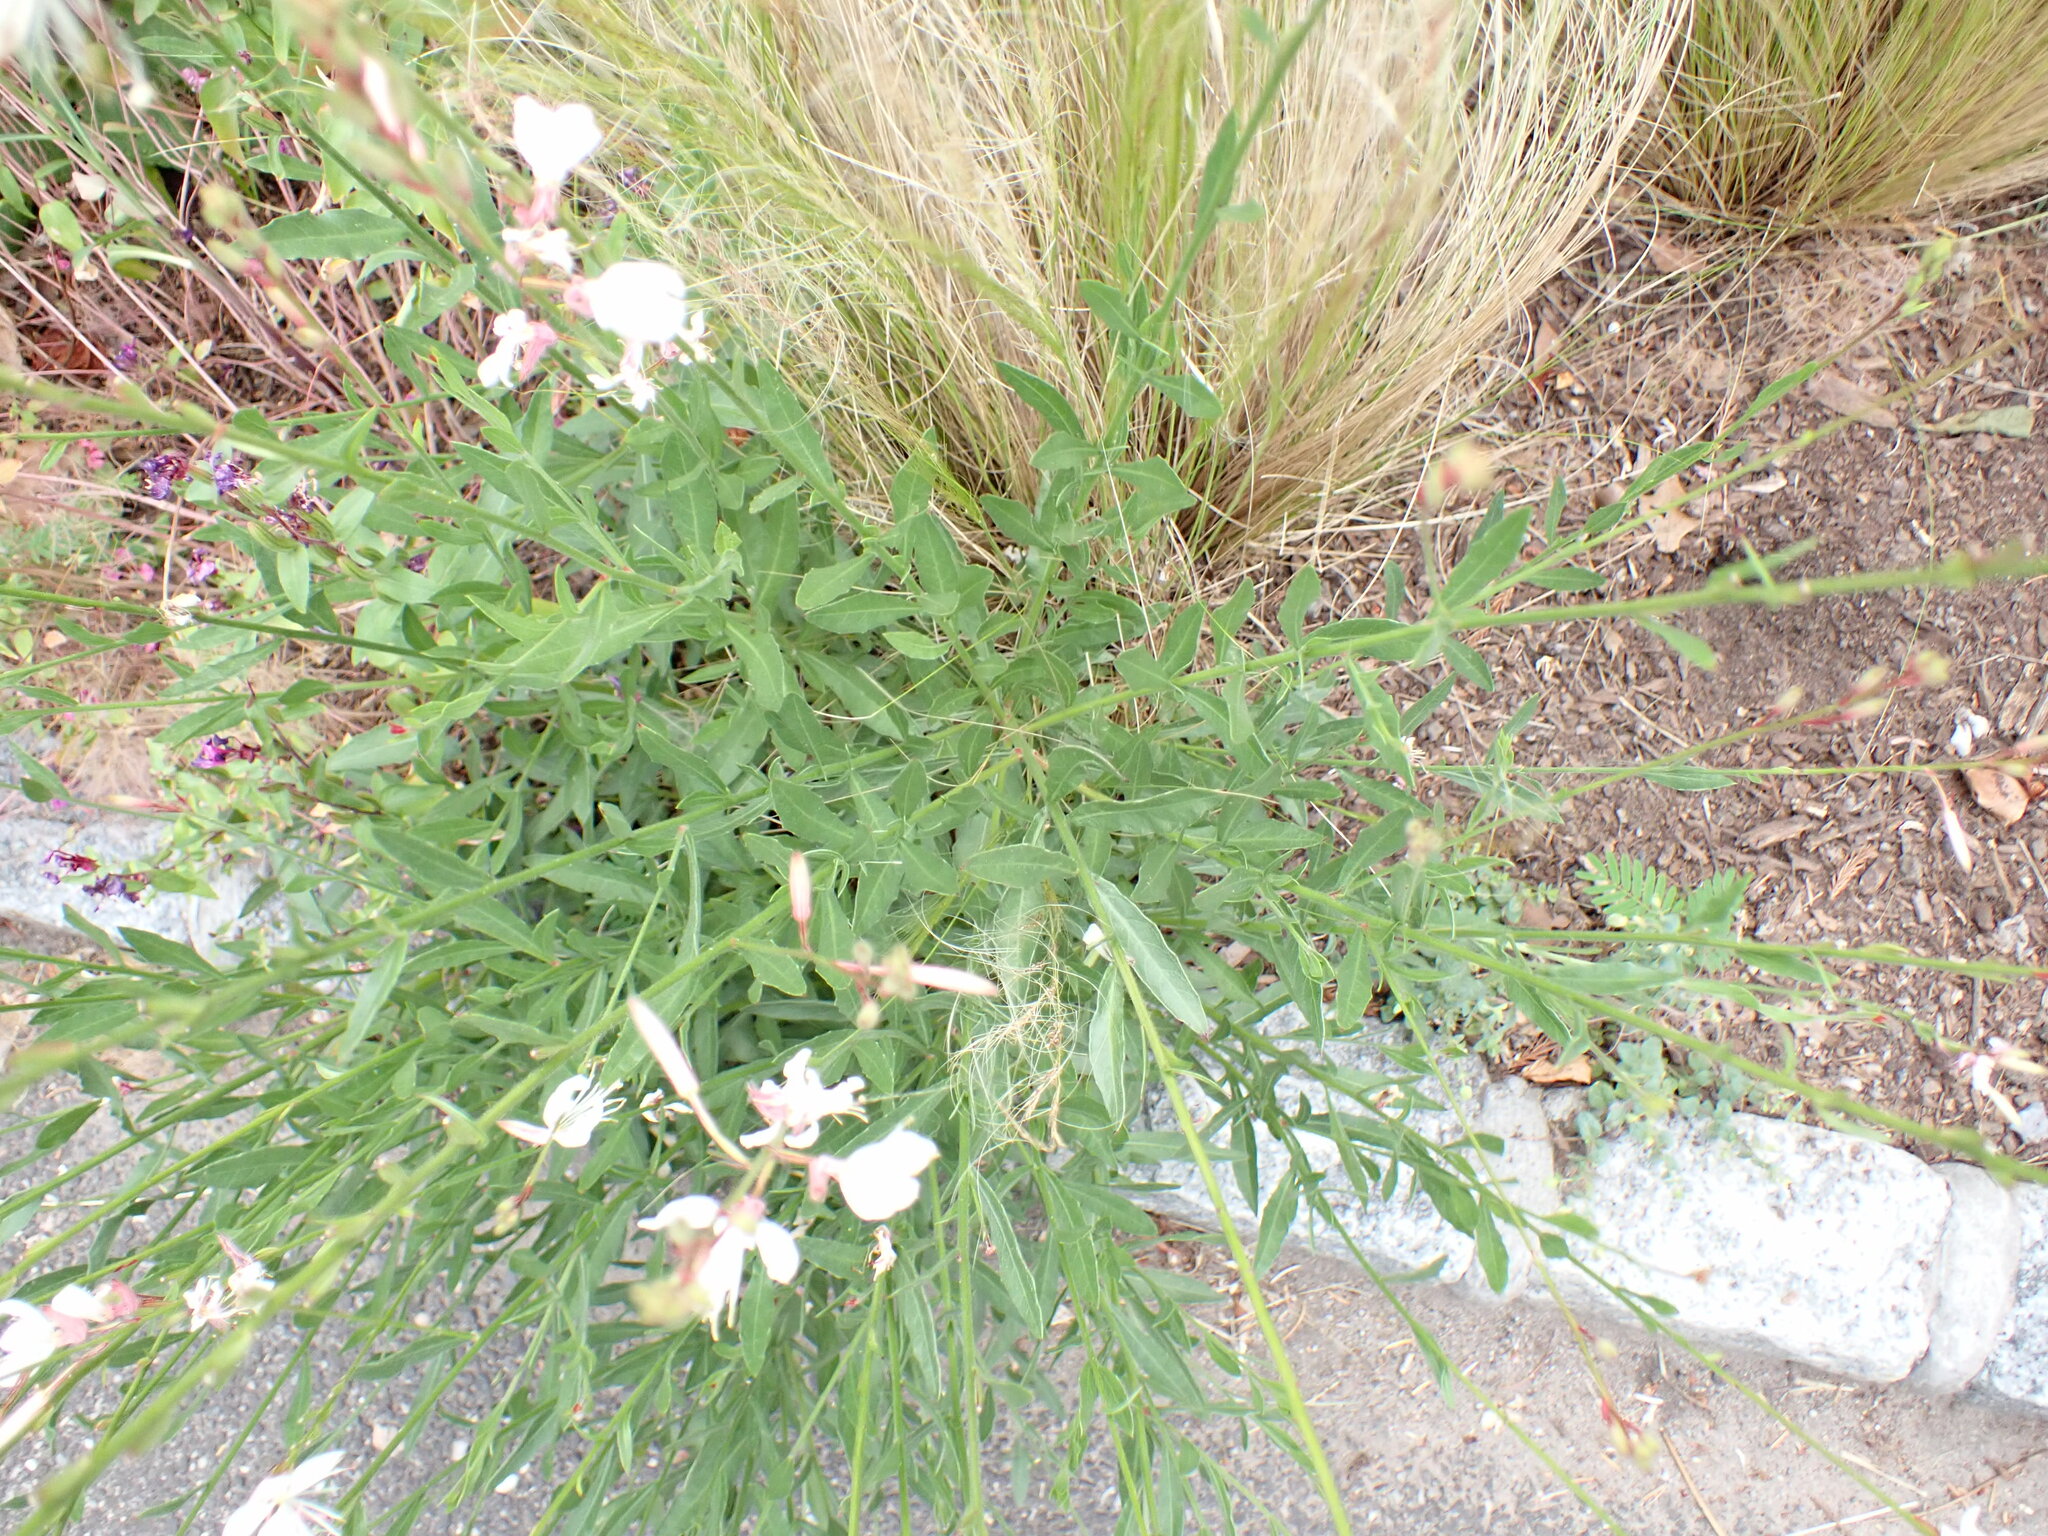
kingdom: Plantae
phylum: Tracheophyta
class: Magnoliopsida
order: Myrtales
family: Onagraceae
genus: Oenothera
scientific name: Oenothera lindheimeri
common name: Lindheimer's beeblossom
